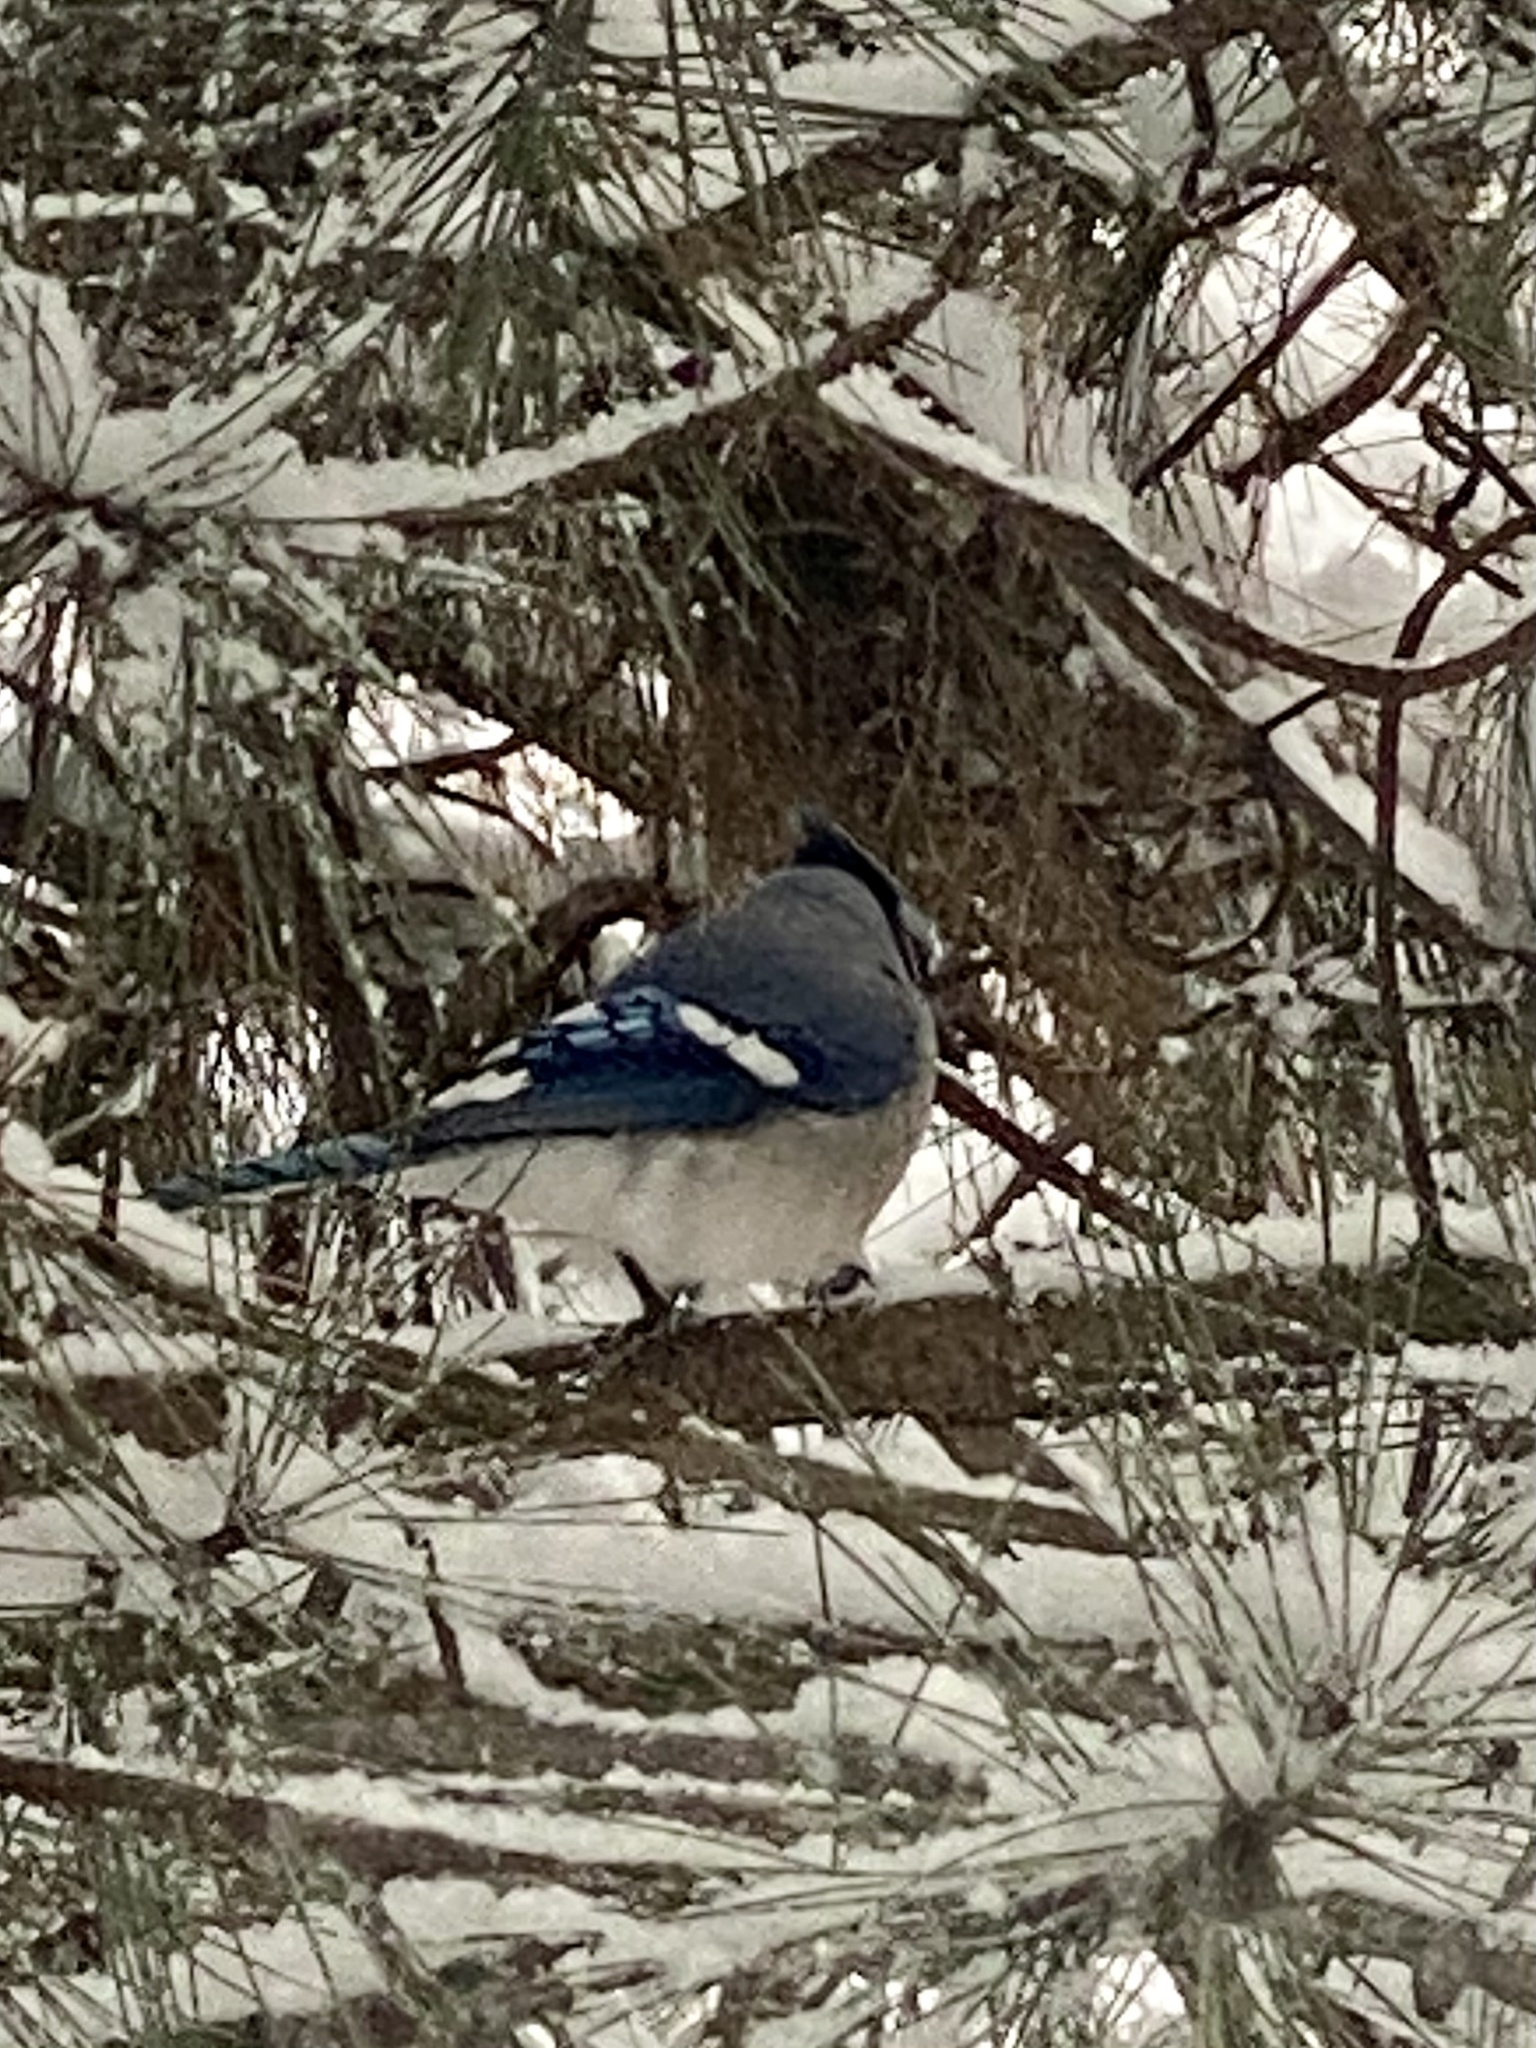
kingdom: Animalia
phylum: Chordata
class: Aves
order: Passeriformes
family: Corvidae
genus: Cyanocitta
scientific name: Cyanocitta cristata
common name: Blue jay
